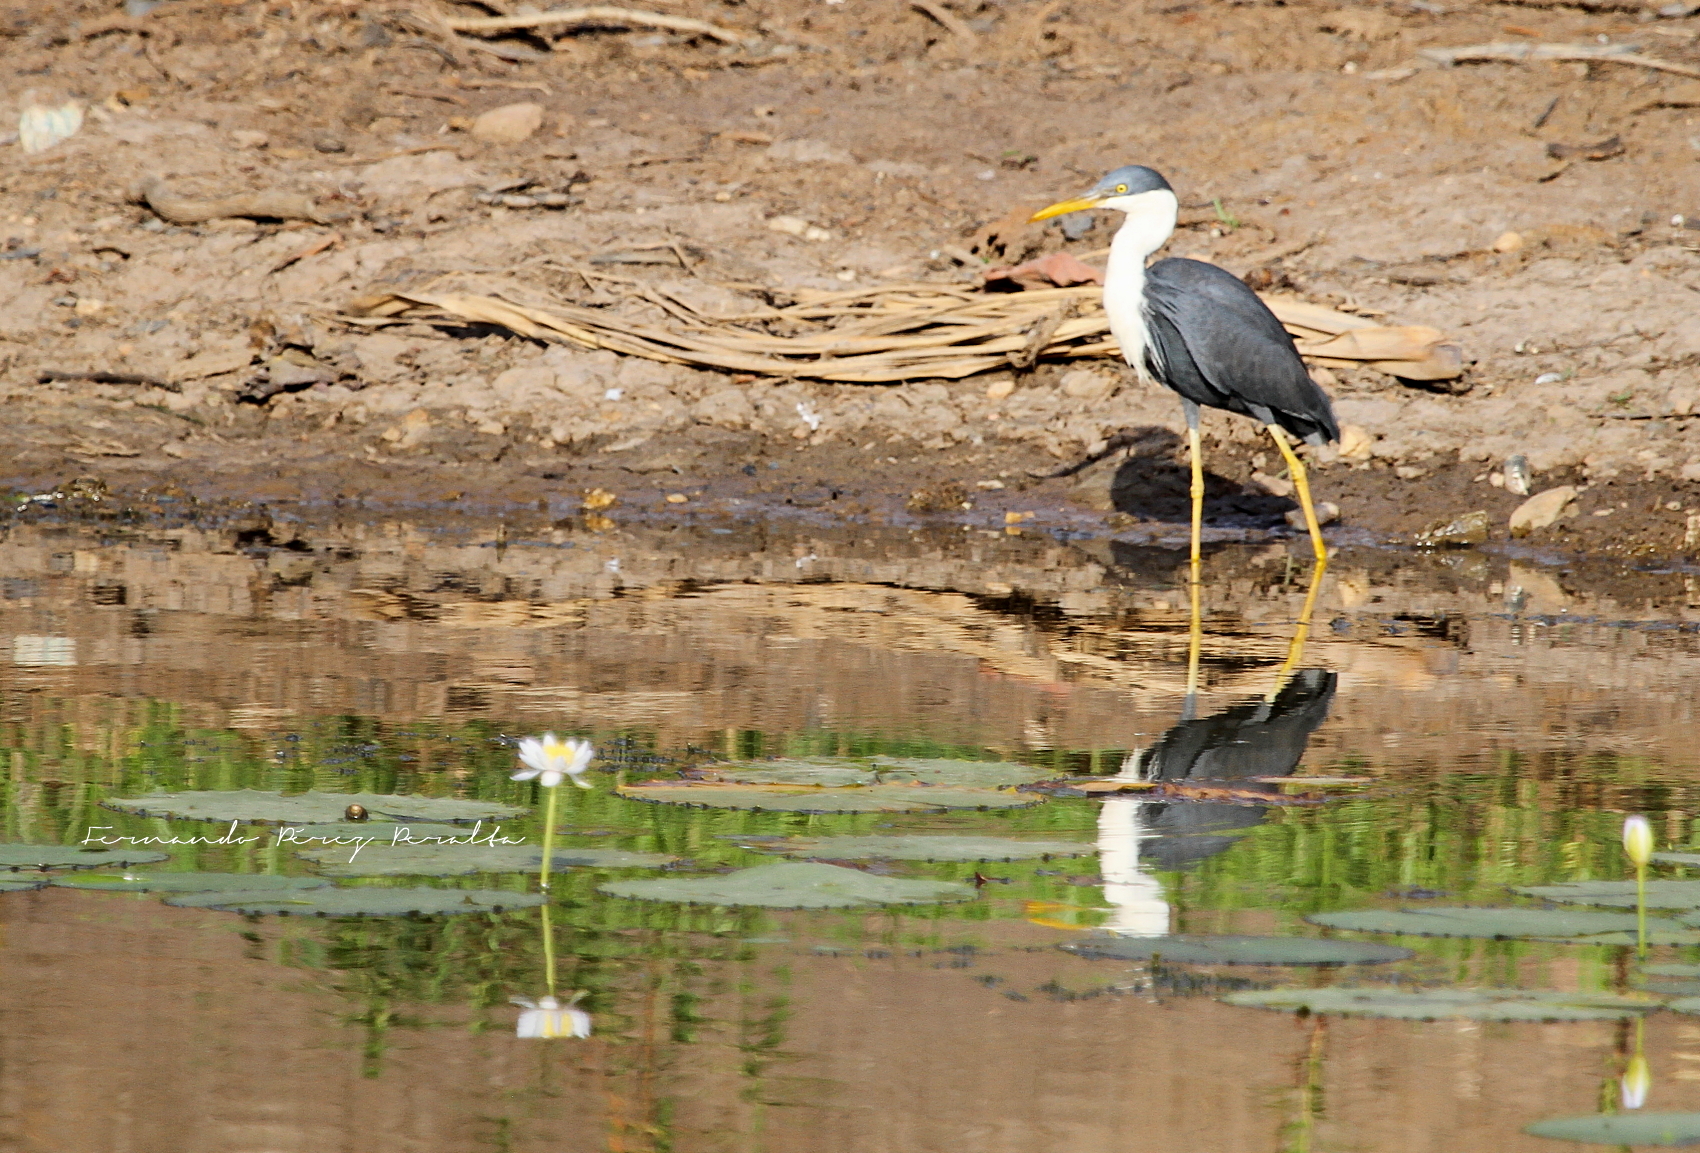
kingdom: Animalia
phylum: Chordata
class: Aves
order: Pelecaniformes
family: Ardeidae
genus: Egretta
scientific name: Egretta picata
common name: Pied heron
